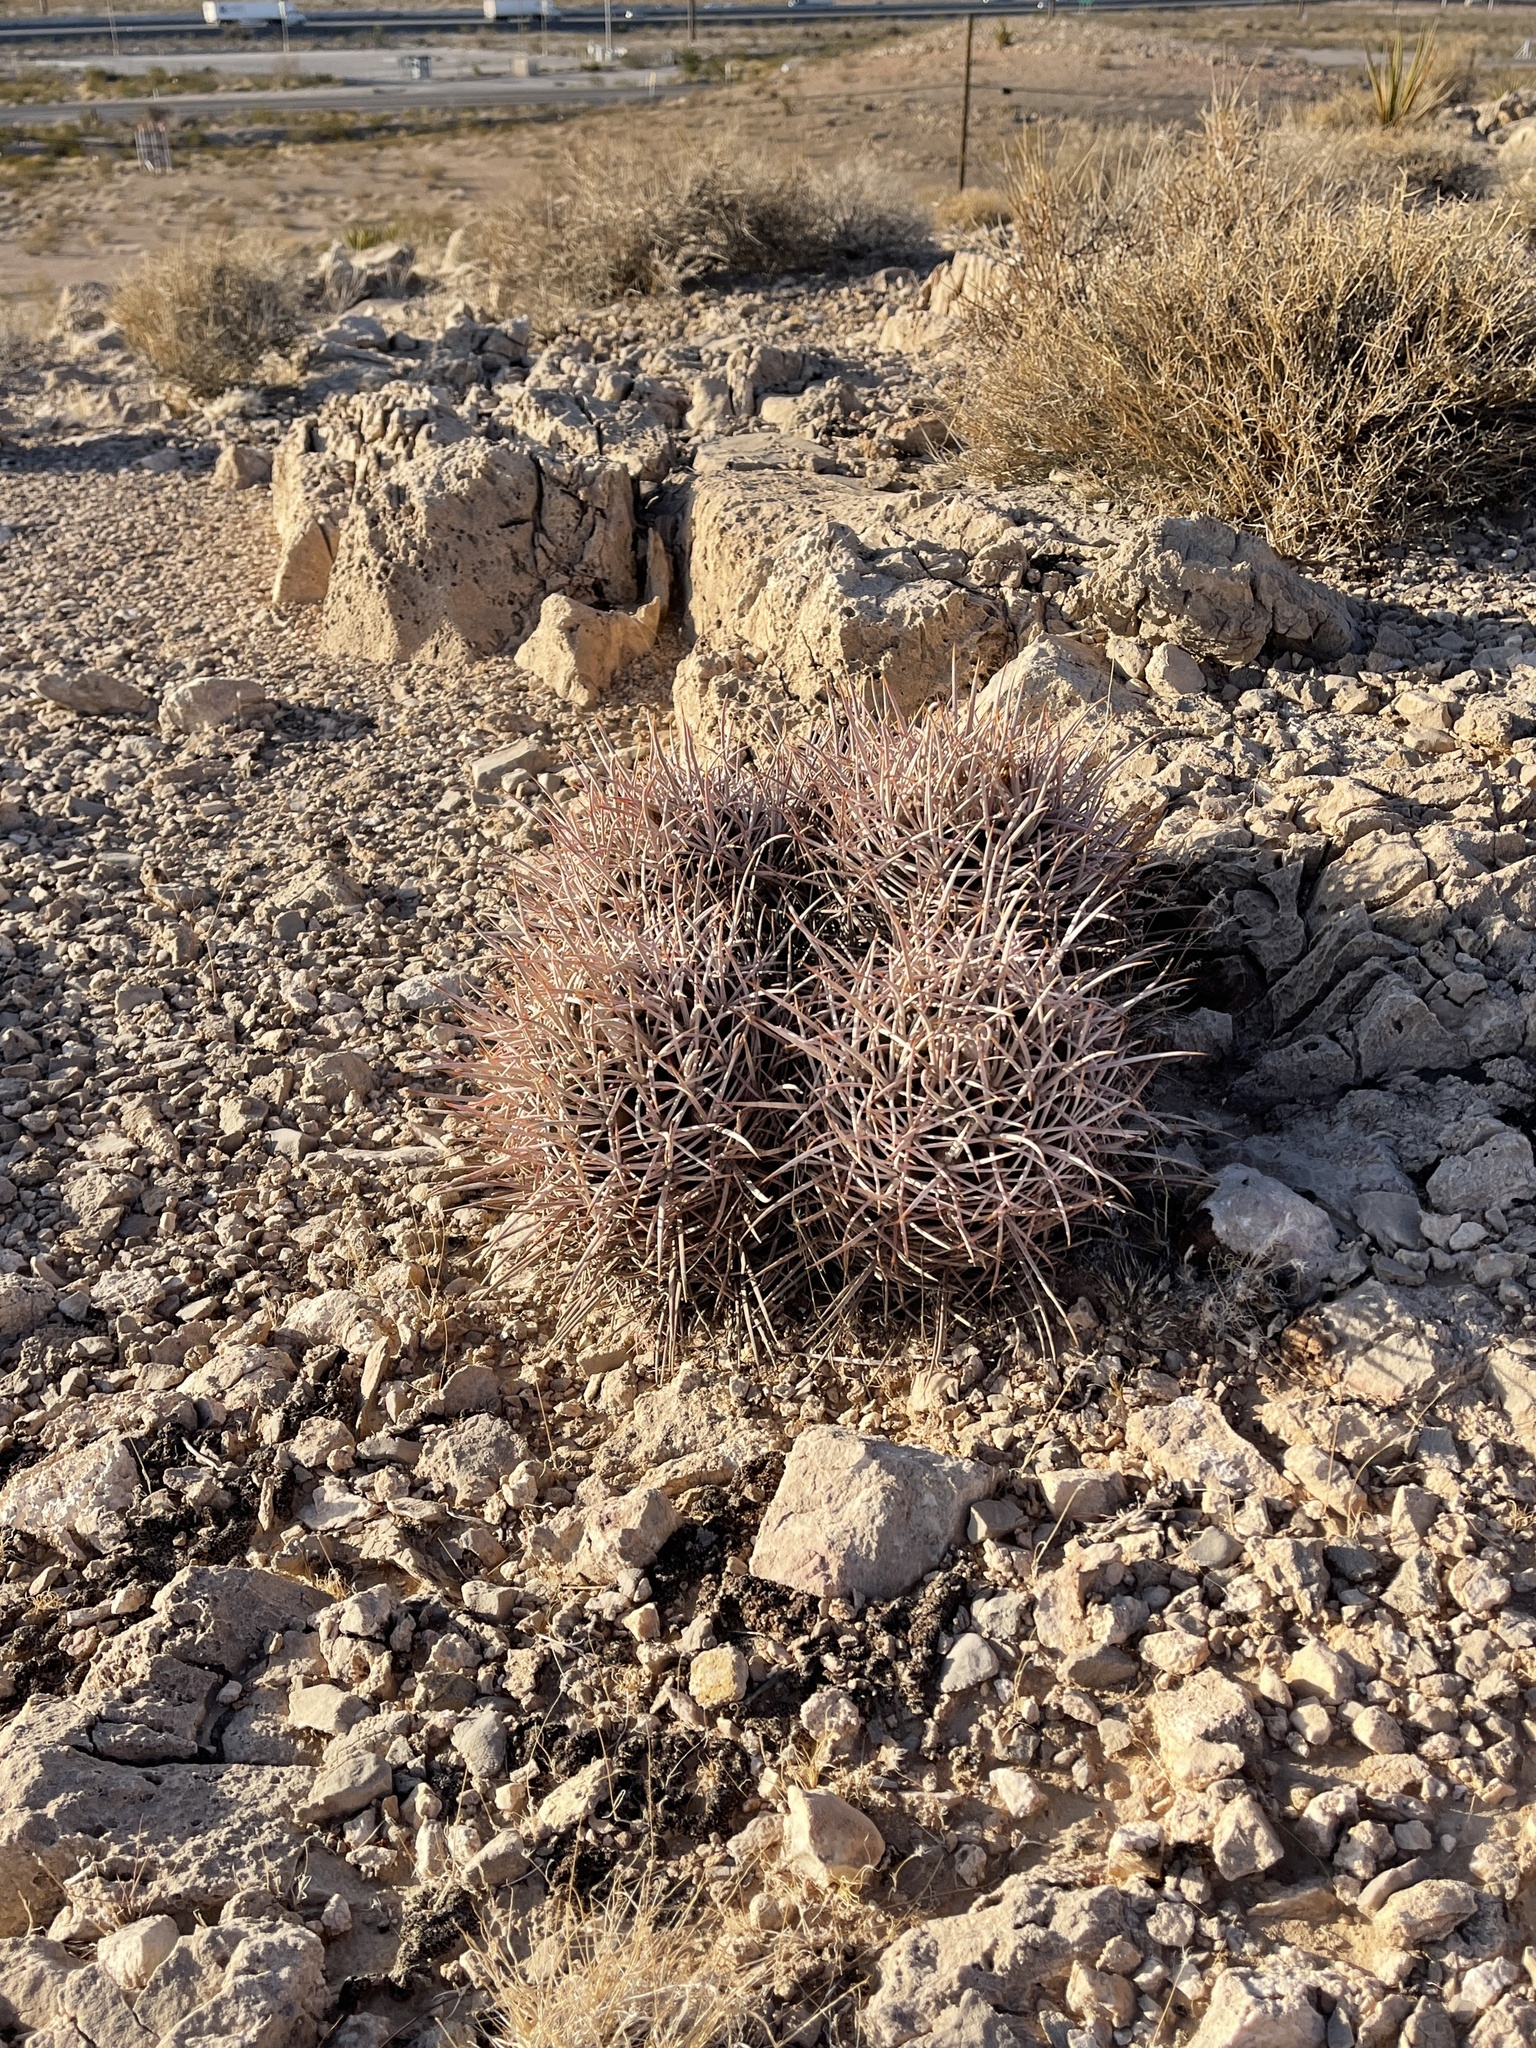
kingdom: Plantae
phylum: Tracheophyta
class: Magnoliopsida
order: Caryophyllales
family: Cactaceae
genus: Echinocactus
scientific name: Echinocactus polycephalus
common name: Cottontop cactus
